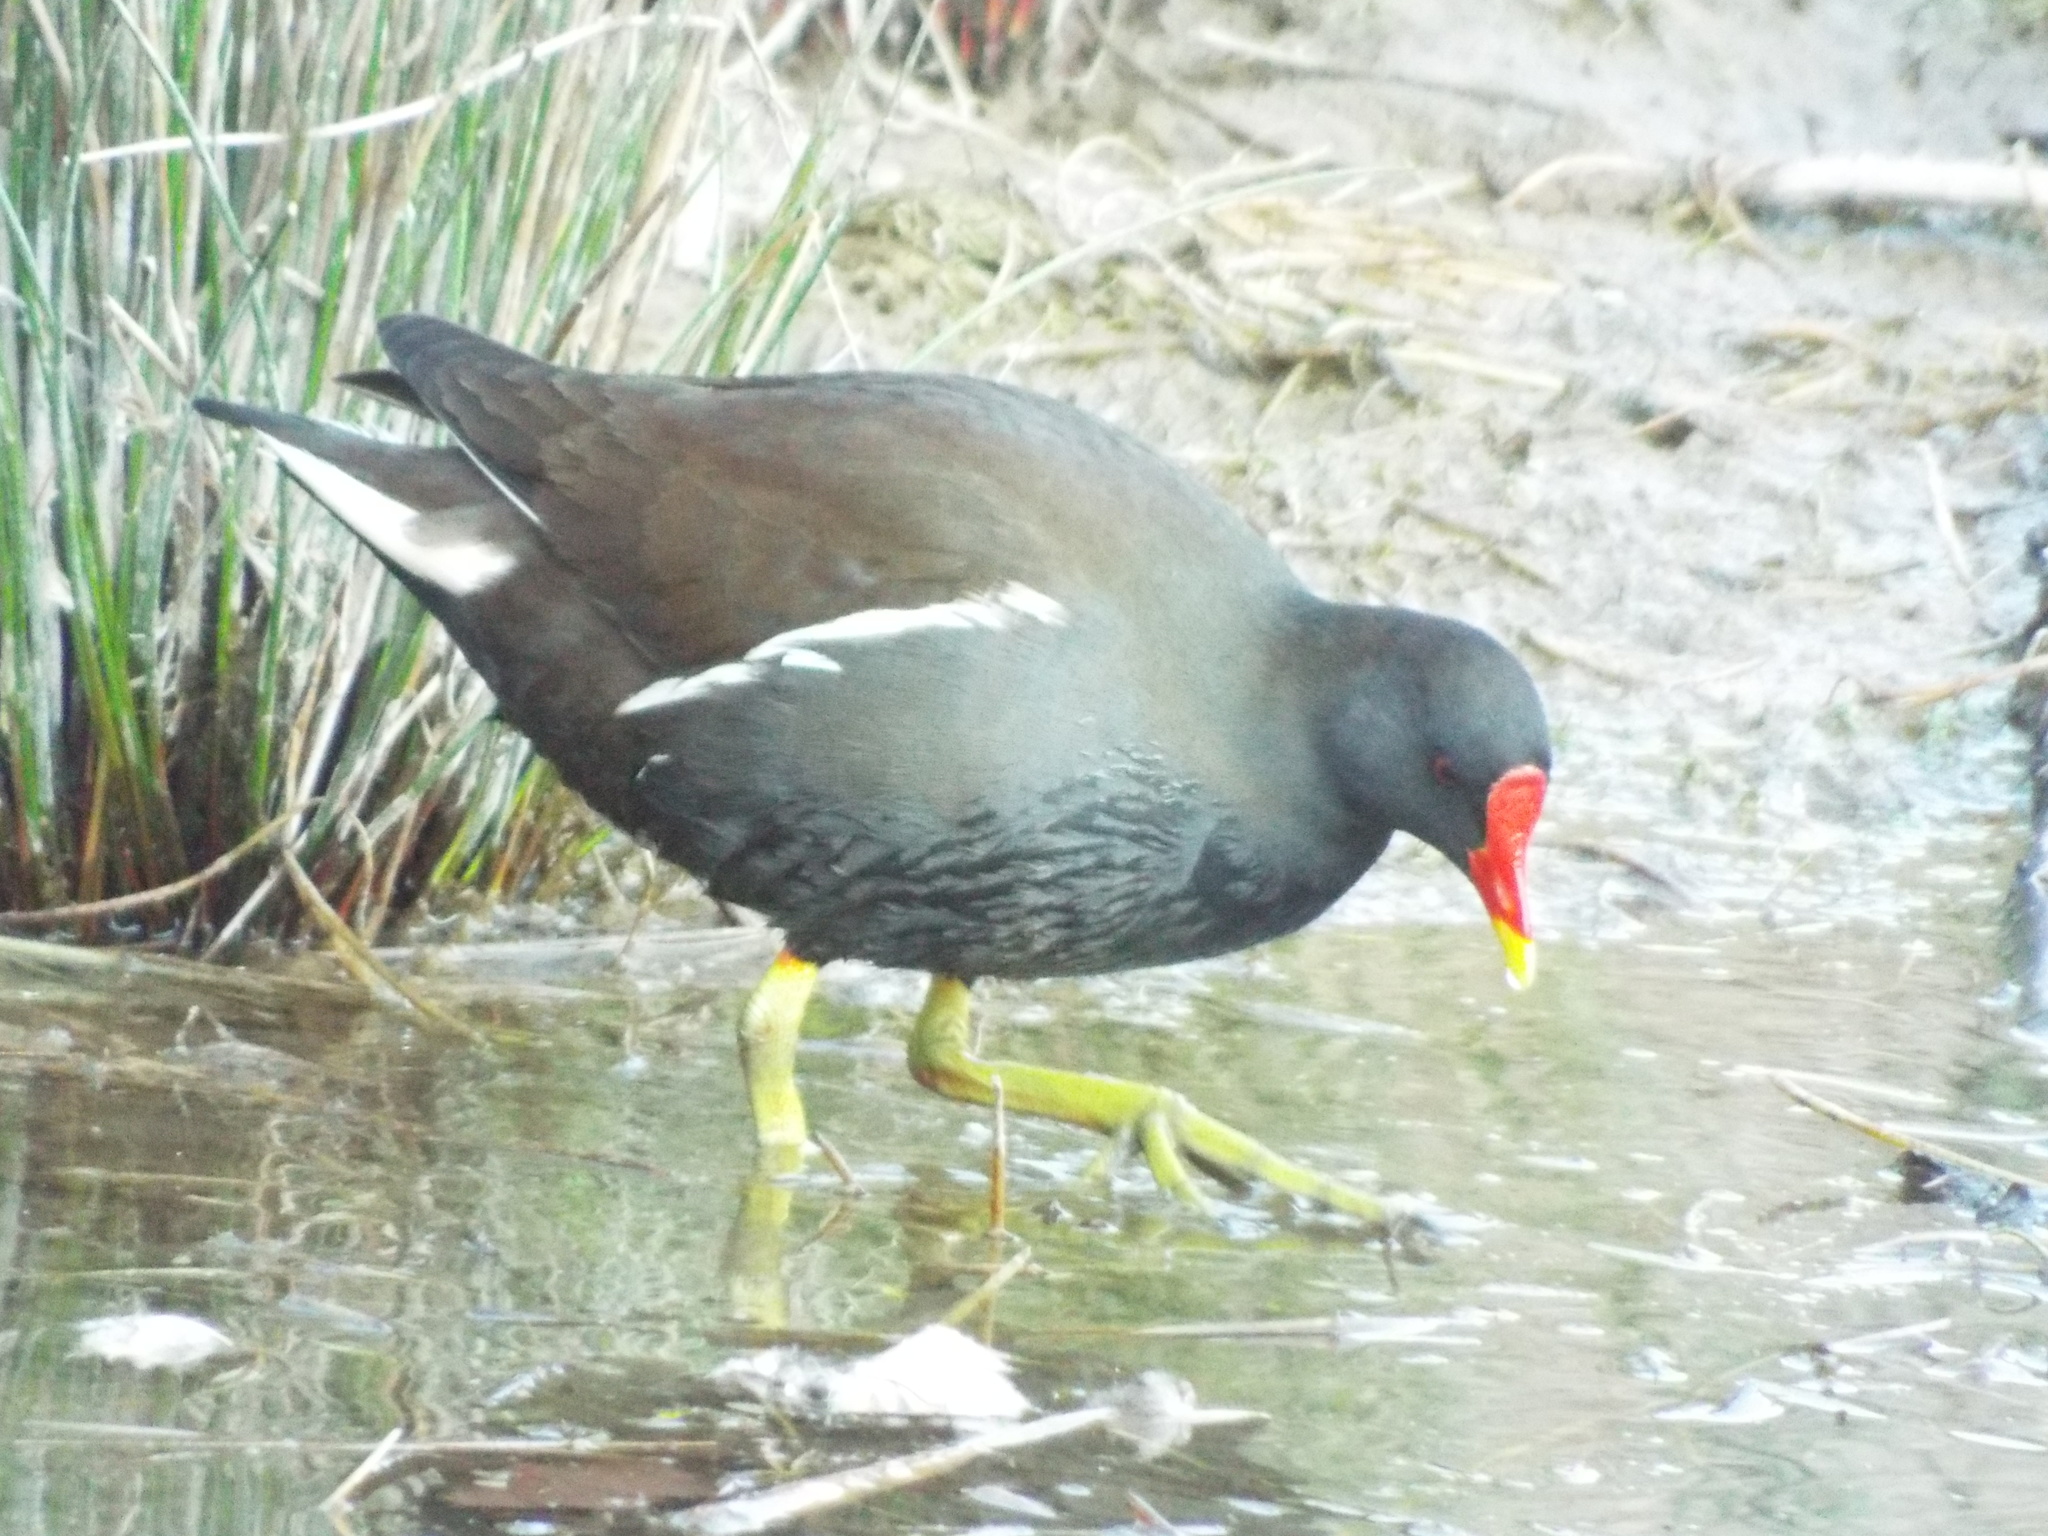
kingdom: Animalia
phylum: Chordata
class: Aves
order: Gruiformes
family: Rallidae
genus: Gallinula
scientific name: Gallinula chloropus
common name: Common moorhen
